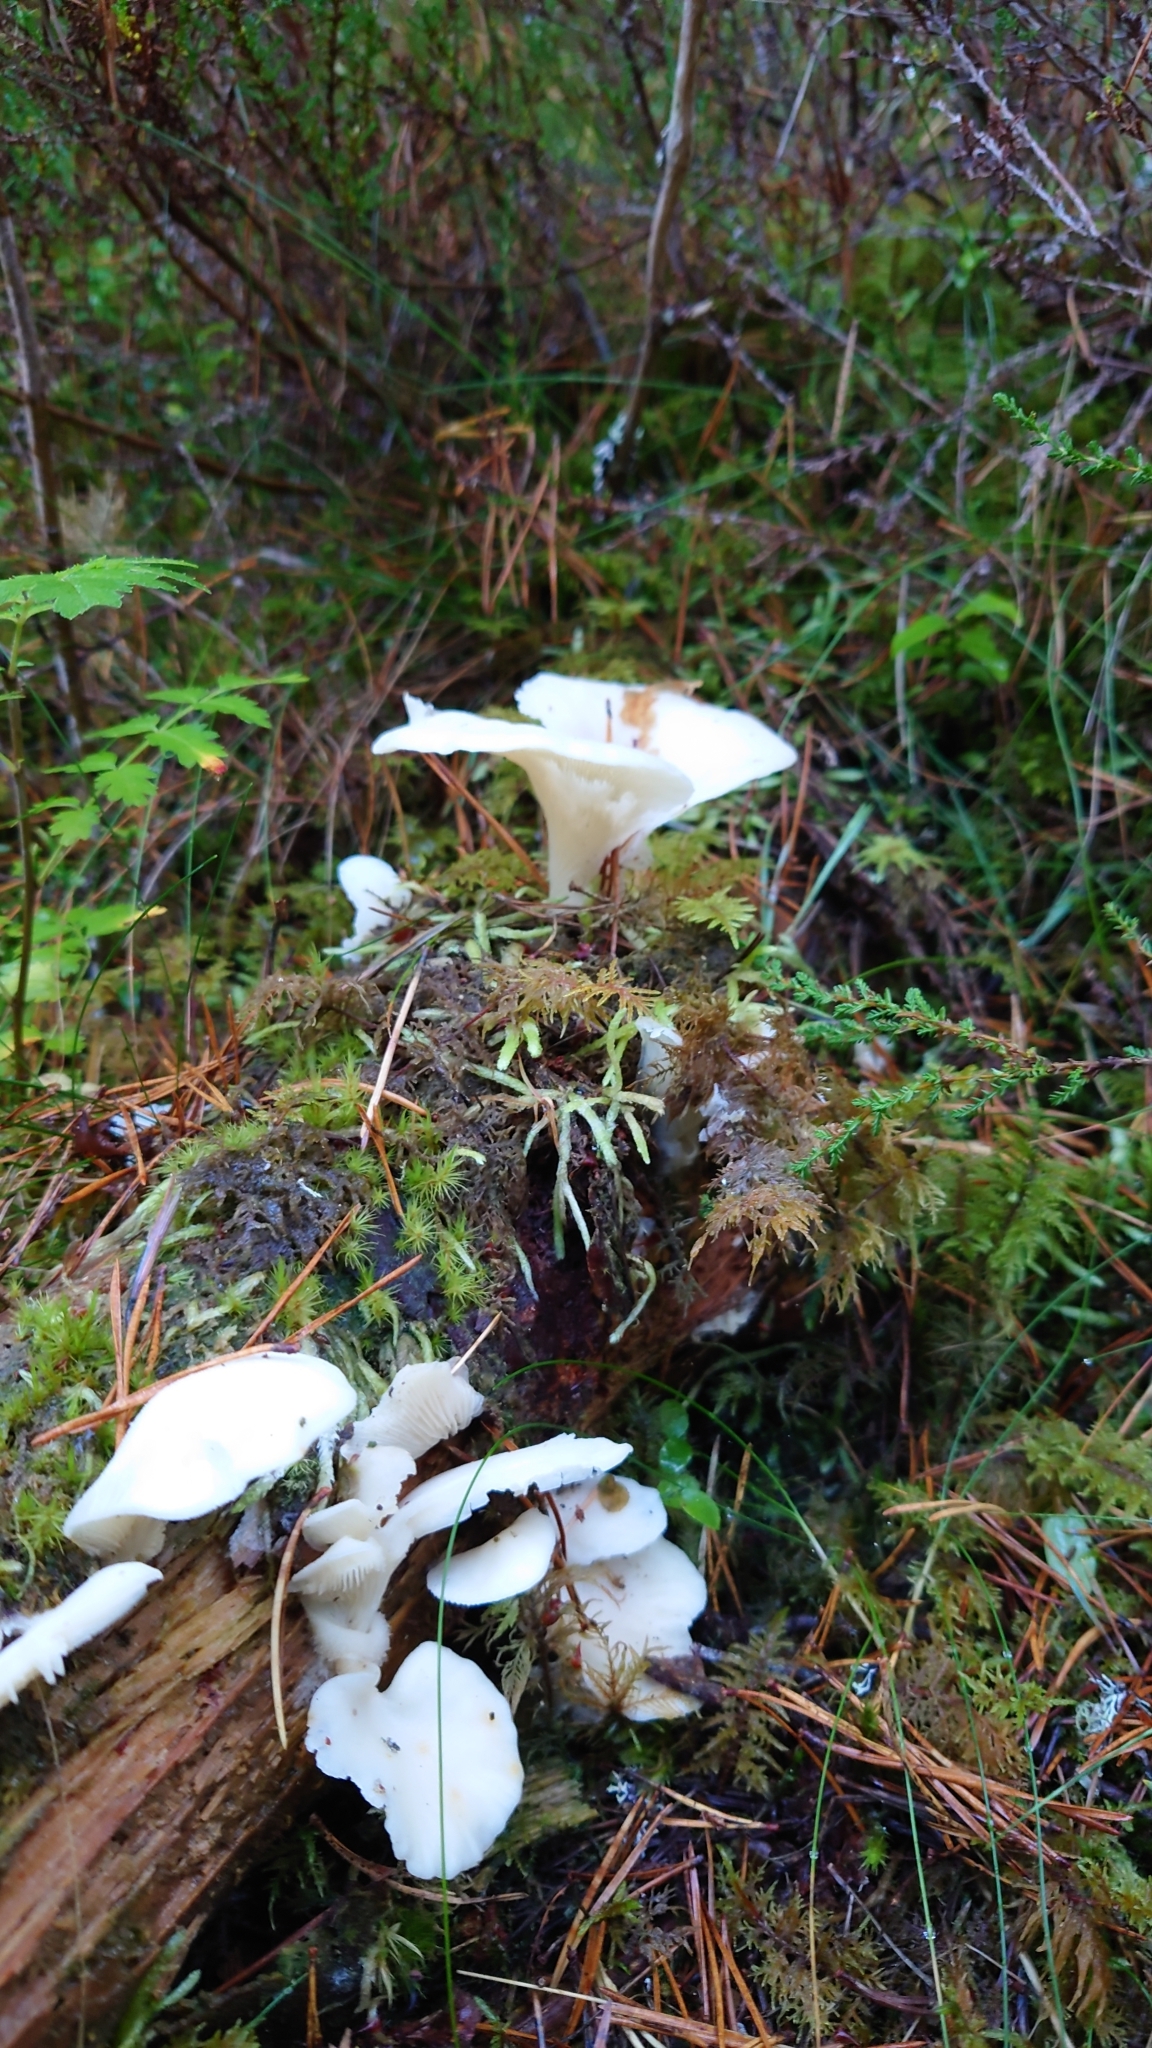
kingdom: Fungi
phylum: Basidiomycota
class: Agaricomycetes
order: Agaricales
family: Marasmiaceae
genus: Pleurocybella
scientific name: Pleurocybella porrigens
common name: Angel's wings
